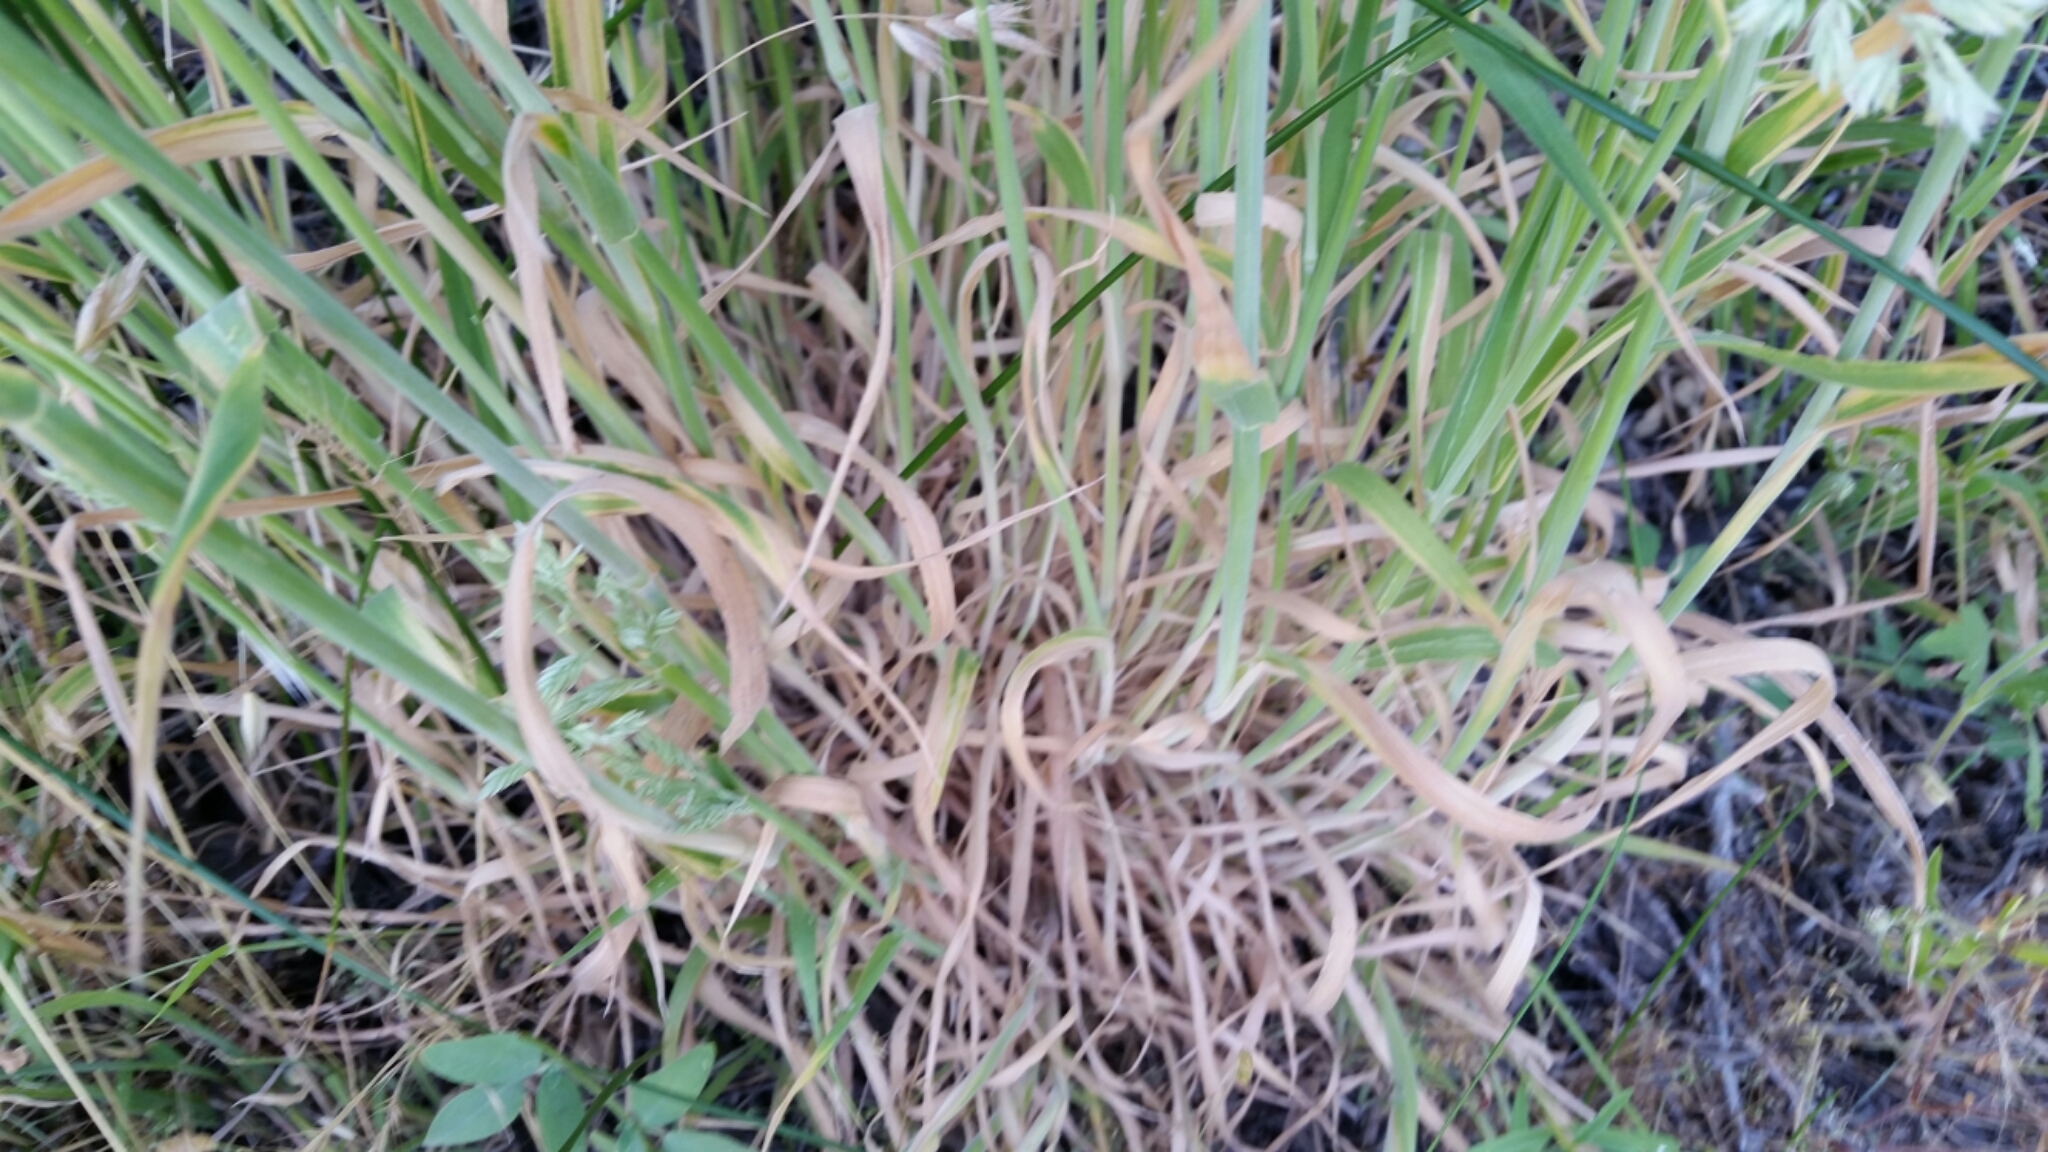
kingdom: Plantae
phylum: Tracheophyta
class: Liliopsida
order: Poales
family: Poaceae
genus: Holcus
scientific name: Holcus lanatus
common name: Yorkshire-fog
